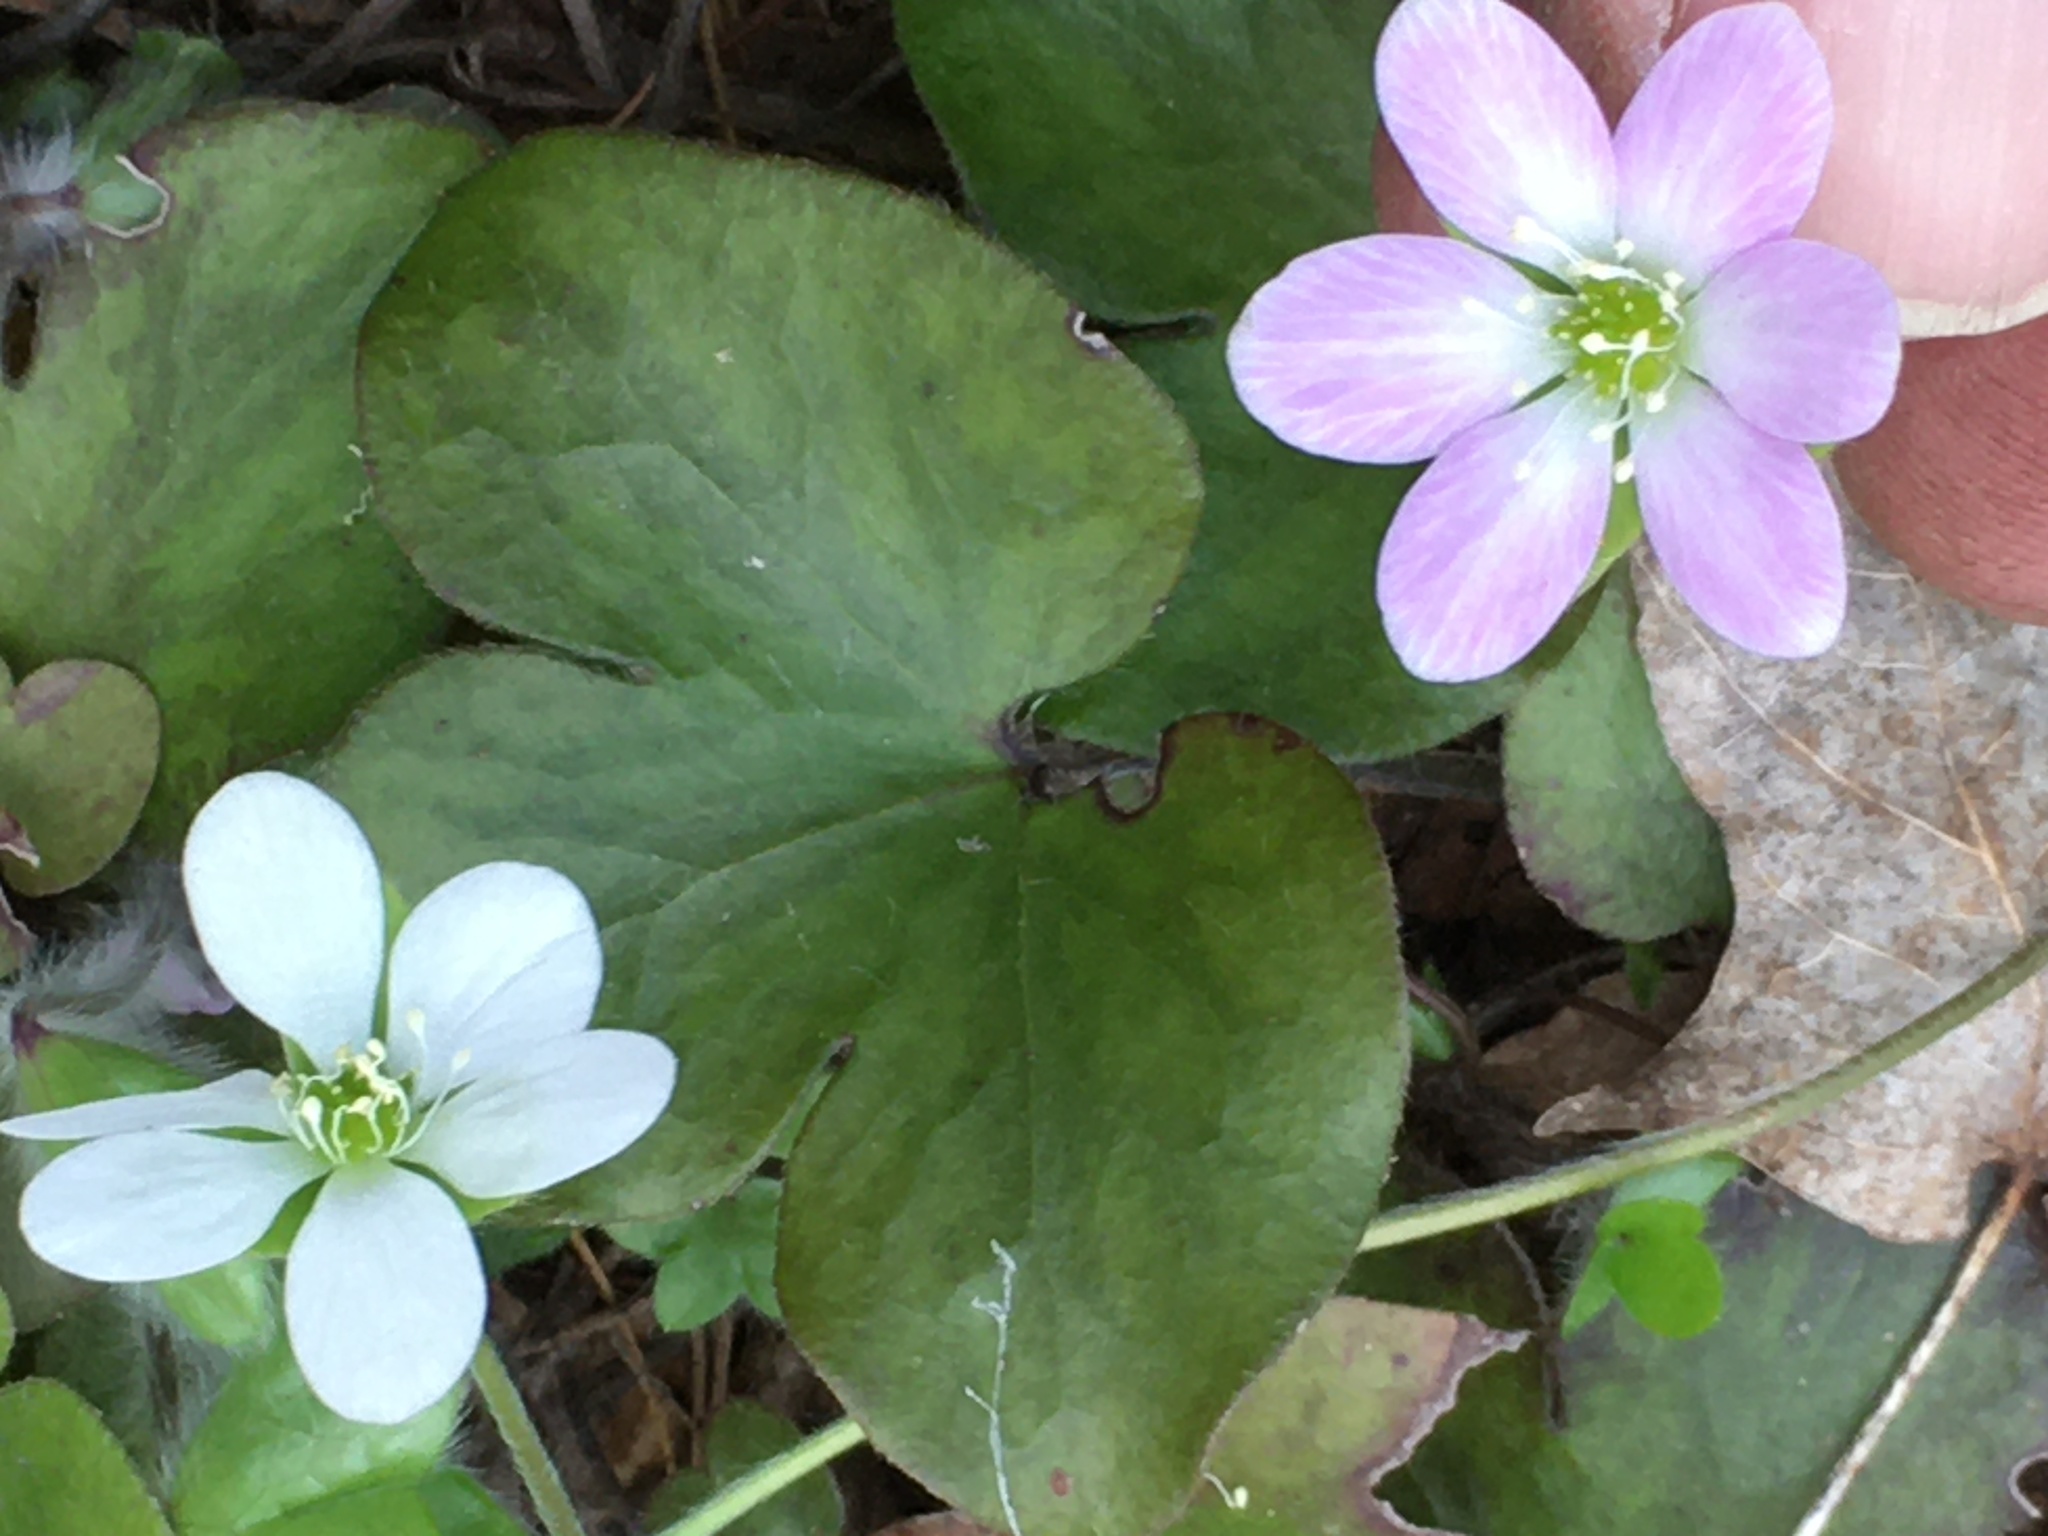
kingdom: Plantae
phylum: Tracheophyta
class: Magnoliopsida
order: Ranunculales
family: Ranunculaceae
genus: Hepatica
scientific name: Hepatica americana
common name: American hepatica
